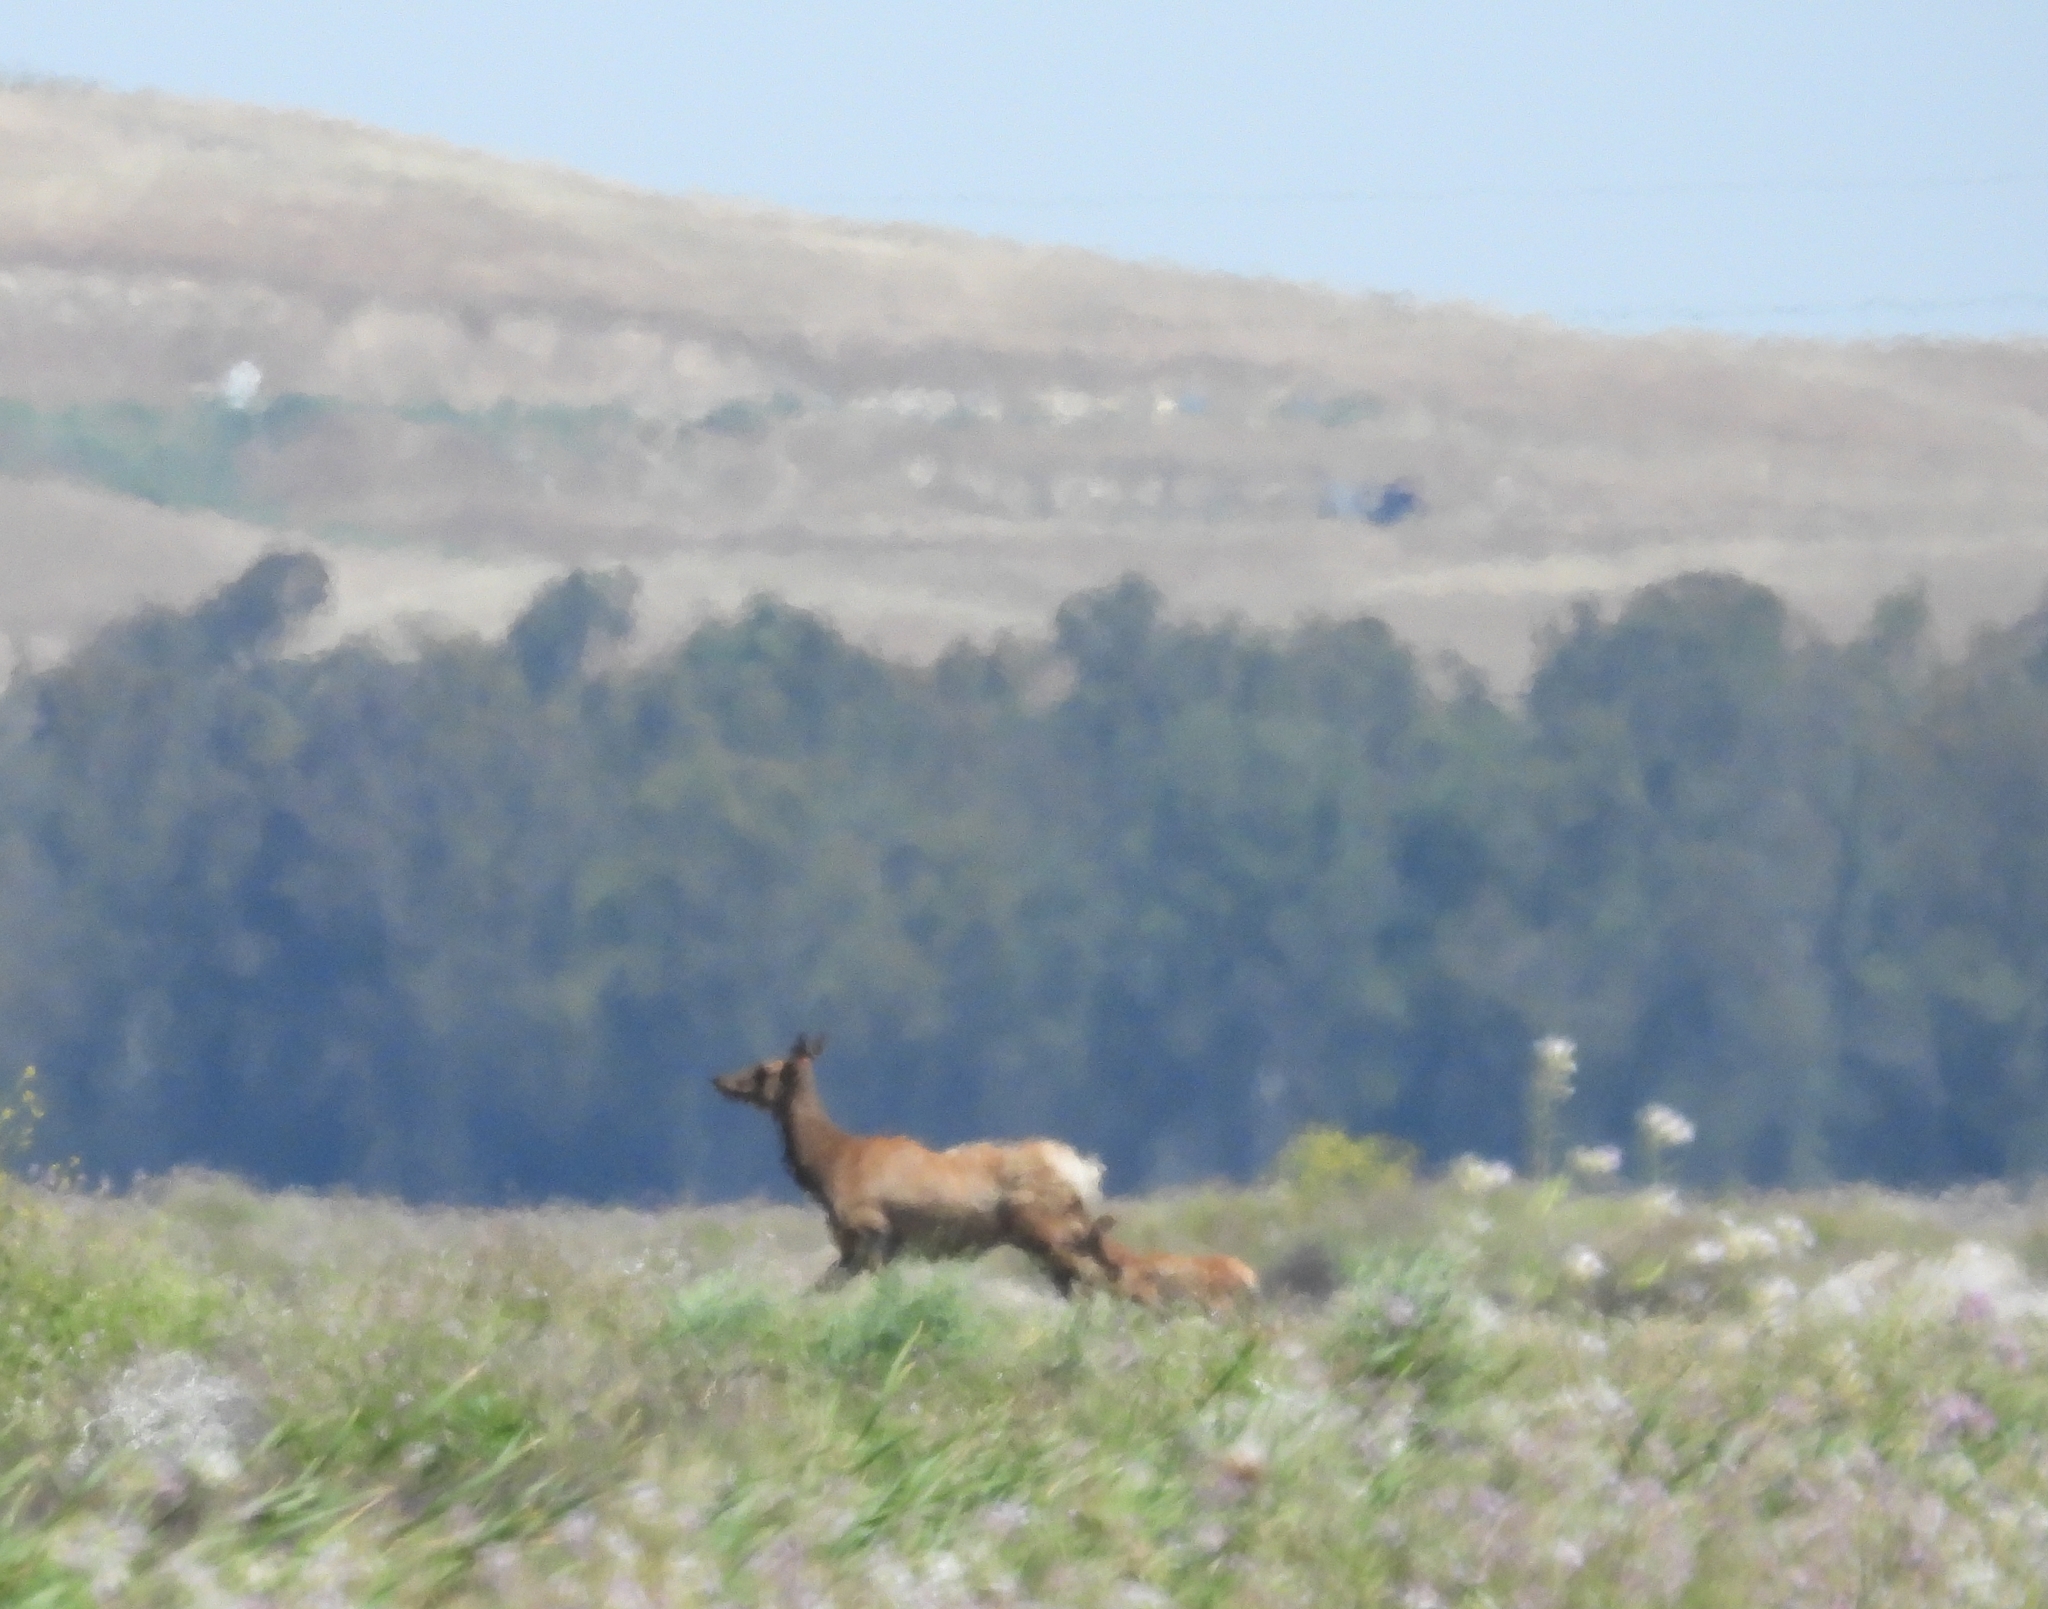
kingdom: Animalia
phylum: Chordata
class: Mammalia
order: Artiodactyla
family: Cervidae
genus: Cervus
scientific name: Cervus elaphus
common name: Red deer
